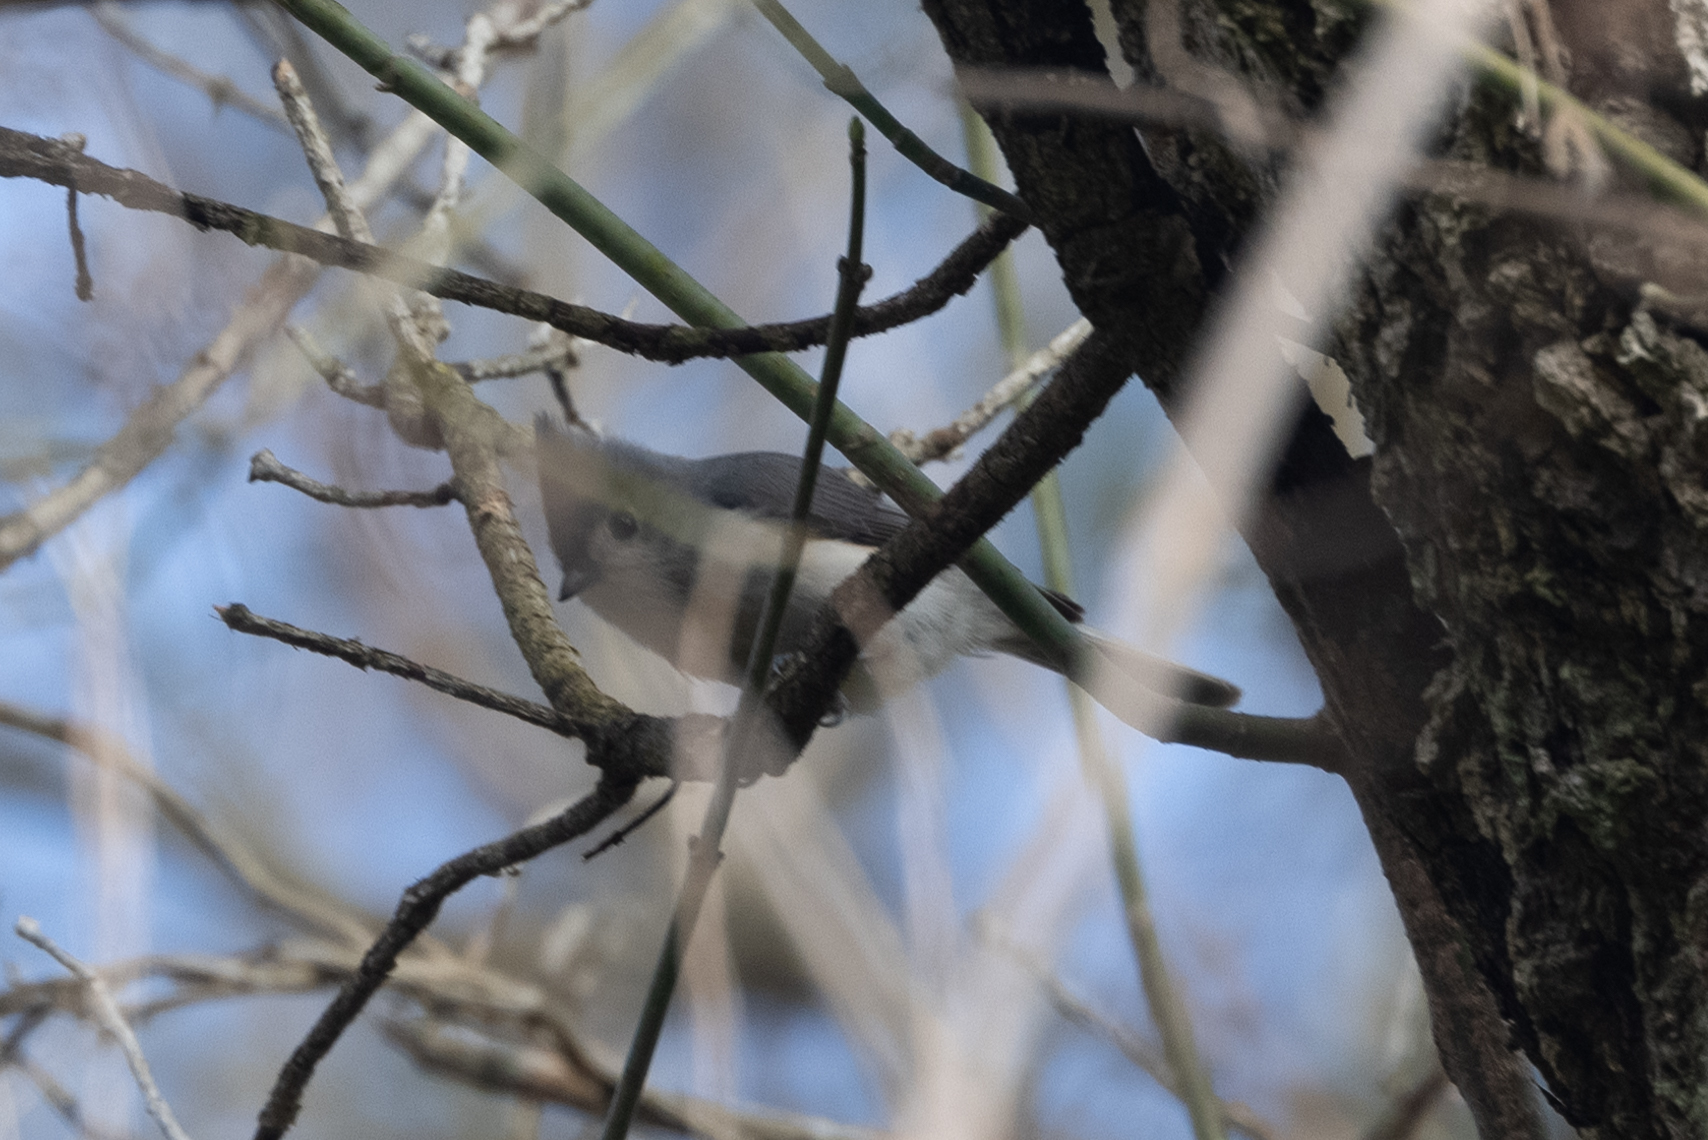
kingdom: Animalia
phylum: Chordata
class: Aves
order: Passeriformes
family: Paridae
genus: Baeolophus
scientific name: Baeolophus bicolor
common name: Tufted titmouse
